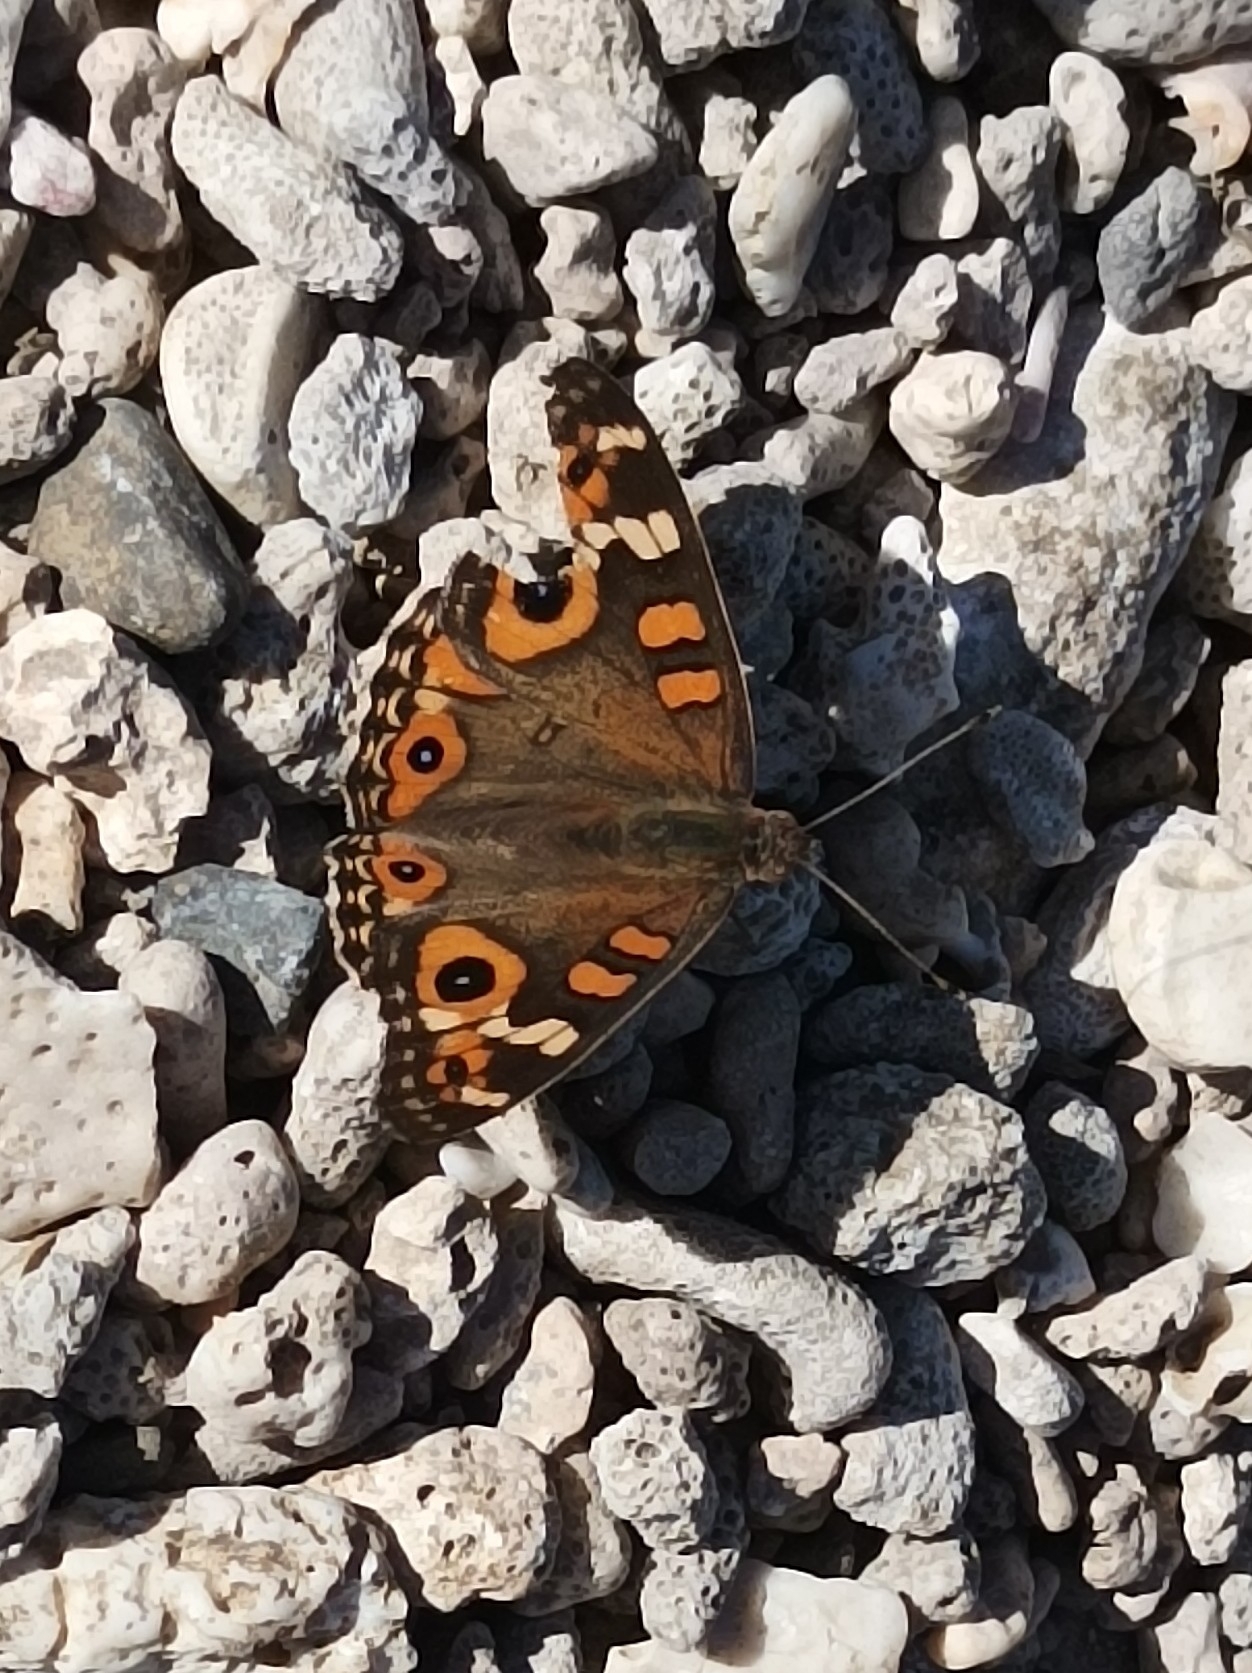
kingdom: Animalia
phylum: Arthropoda
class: Insecta
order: Lepidoptera
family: Nymphalidae
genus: Junonia
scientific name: Junonia villida
